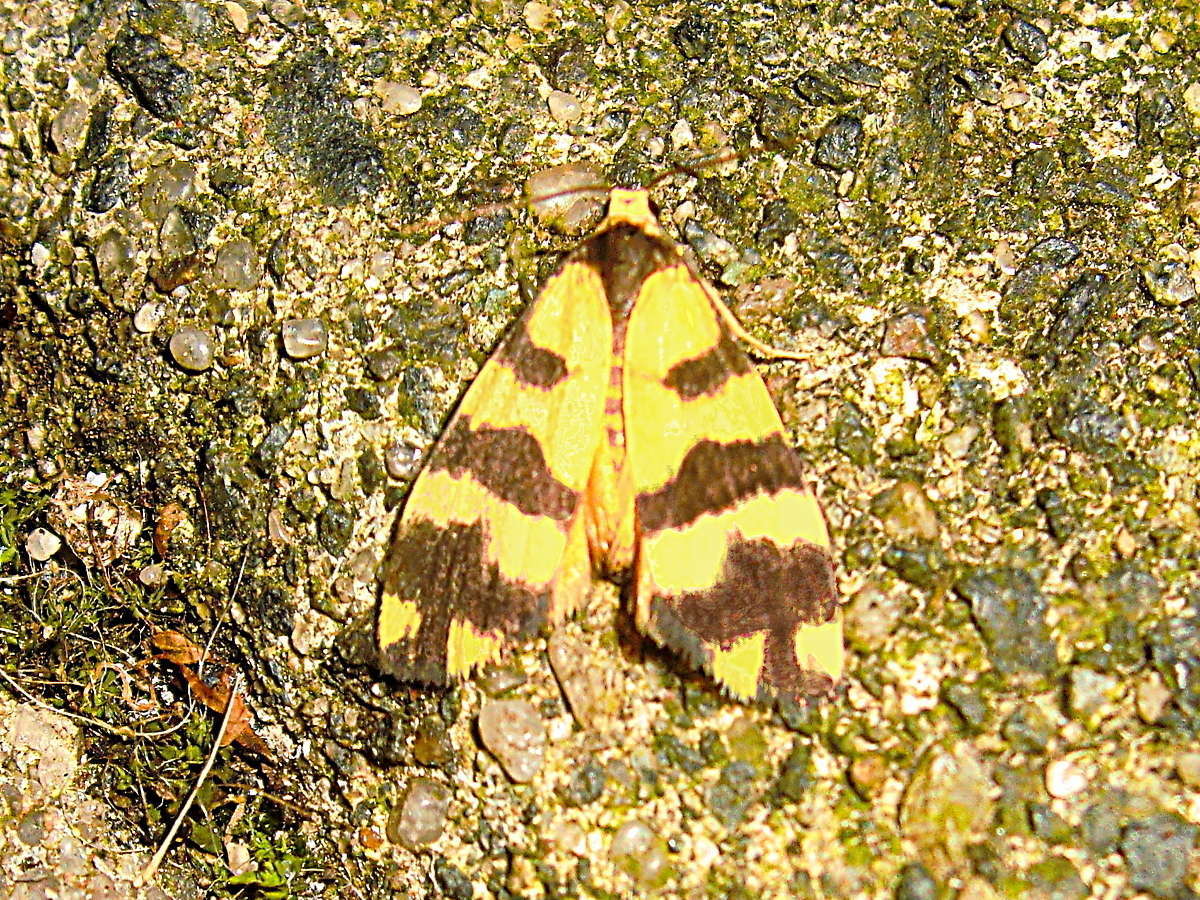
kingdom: Animalia
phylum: Arthropoda
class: Insecta
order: Lepidoptera
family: Erebidae
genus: Thallarcha
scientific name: Thallarcha partita
